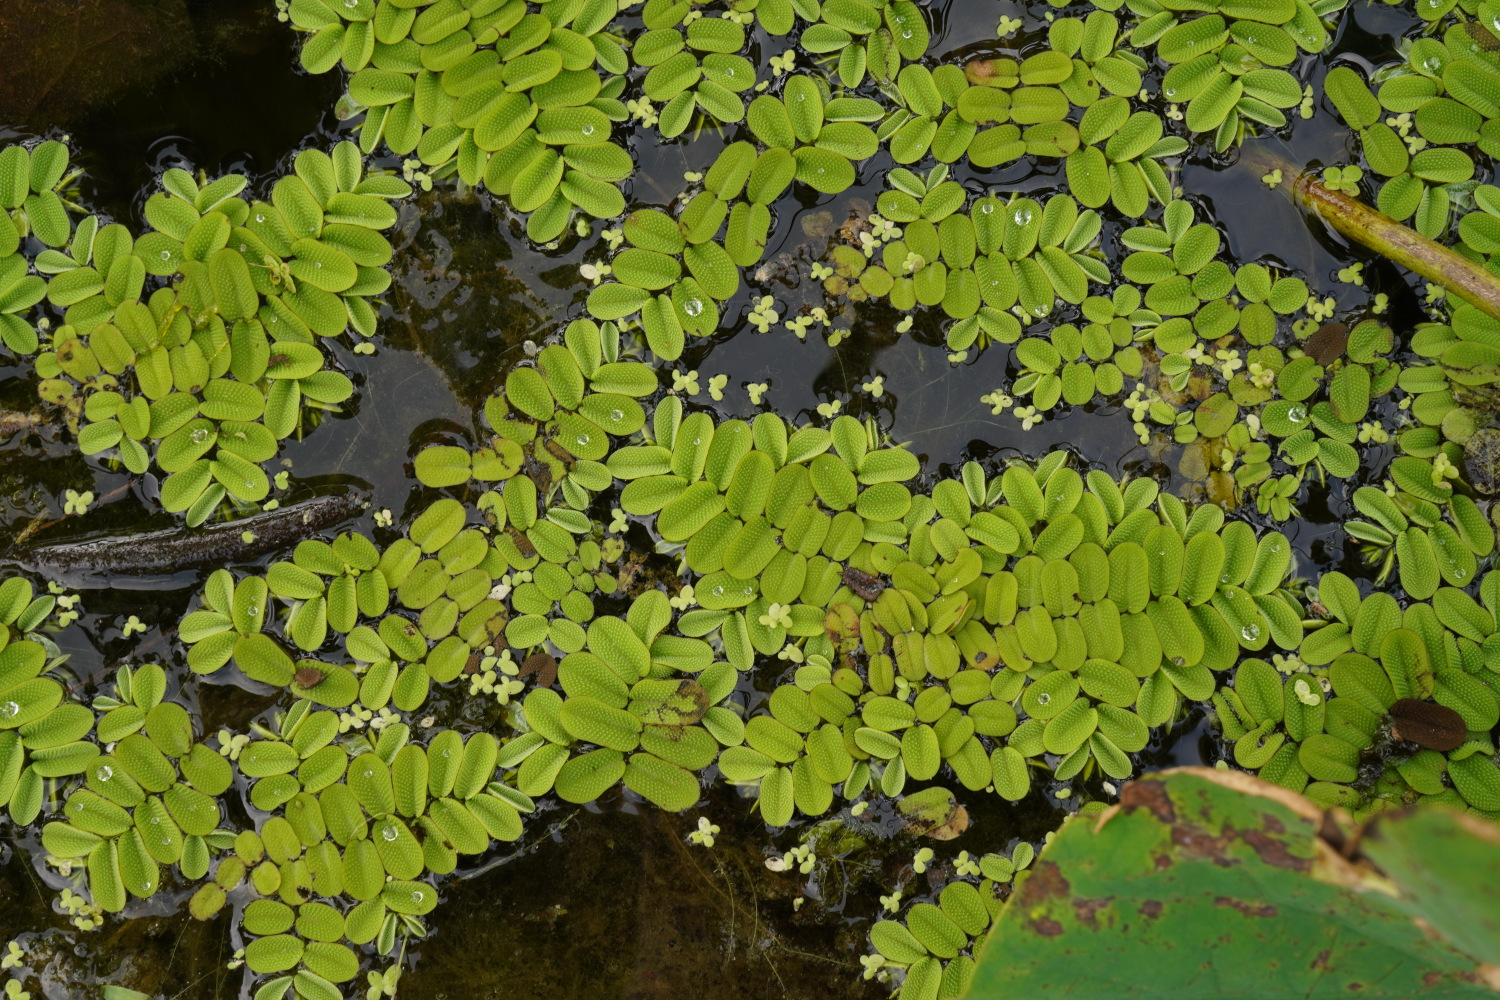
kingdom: Plantae
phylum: Tracheophyta
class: Polypodiopsida
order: Salviniales
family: Salviniaceae
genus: Salvinia
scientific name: Salvinia natans
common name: Floating fern
